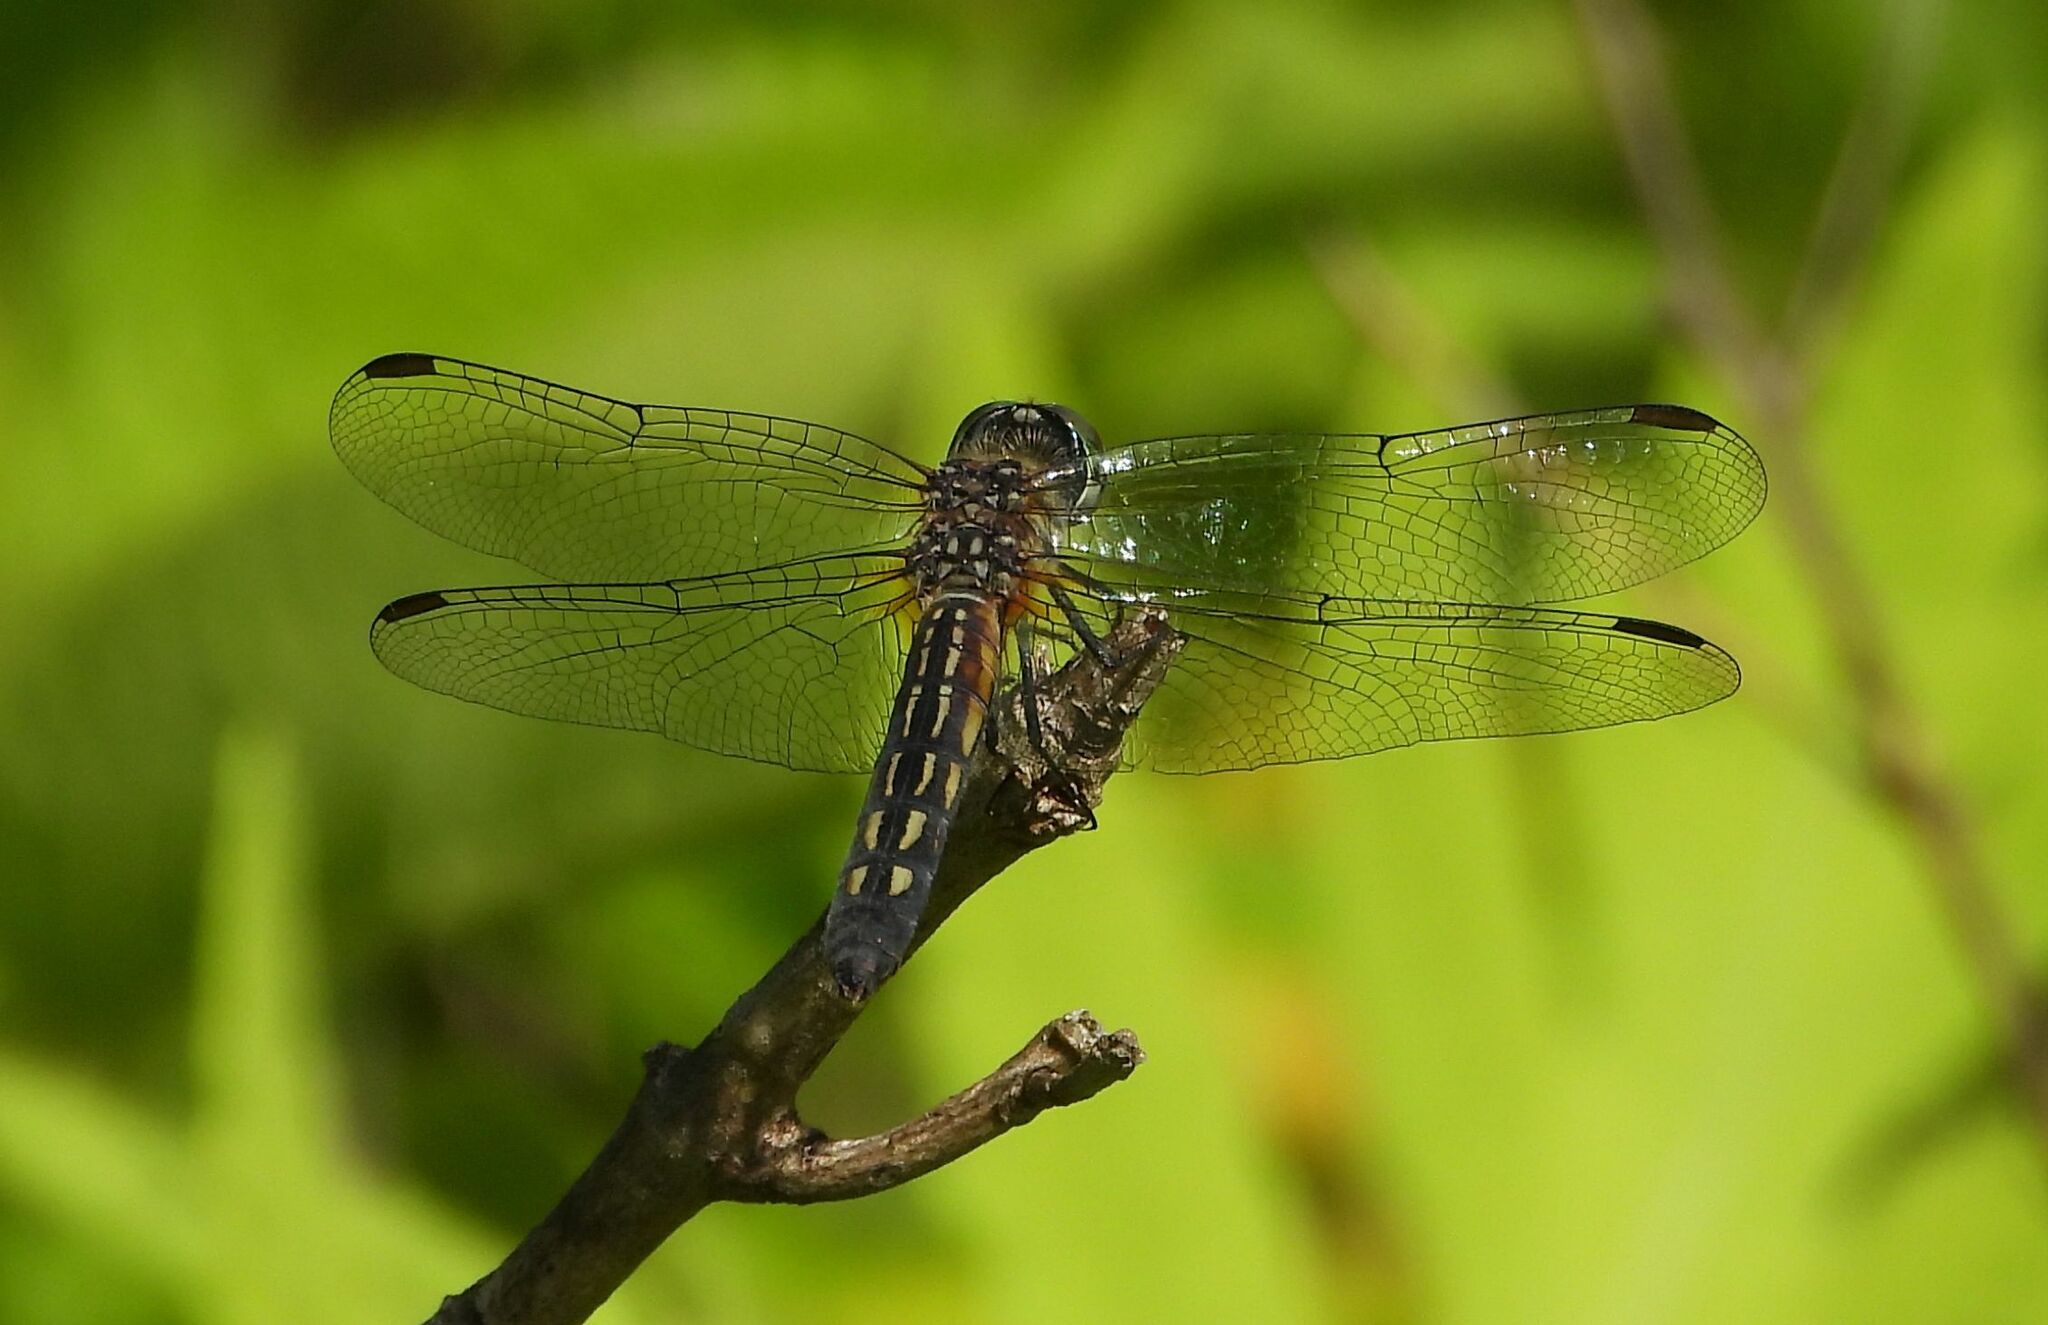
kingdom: Animalia
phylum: Arthropoda
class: Insecta
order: Odonata
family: Libellulidae
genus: Pachydiplax
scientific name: Pachydiplax longipennis
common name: Blue dasher
